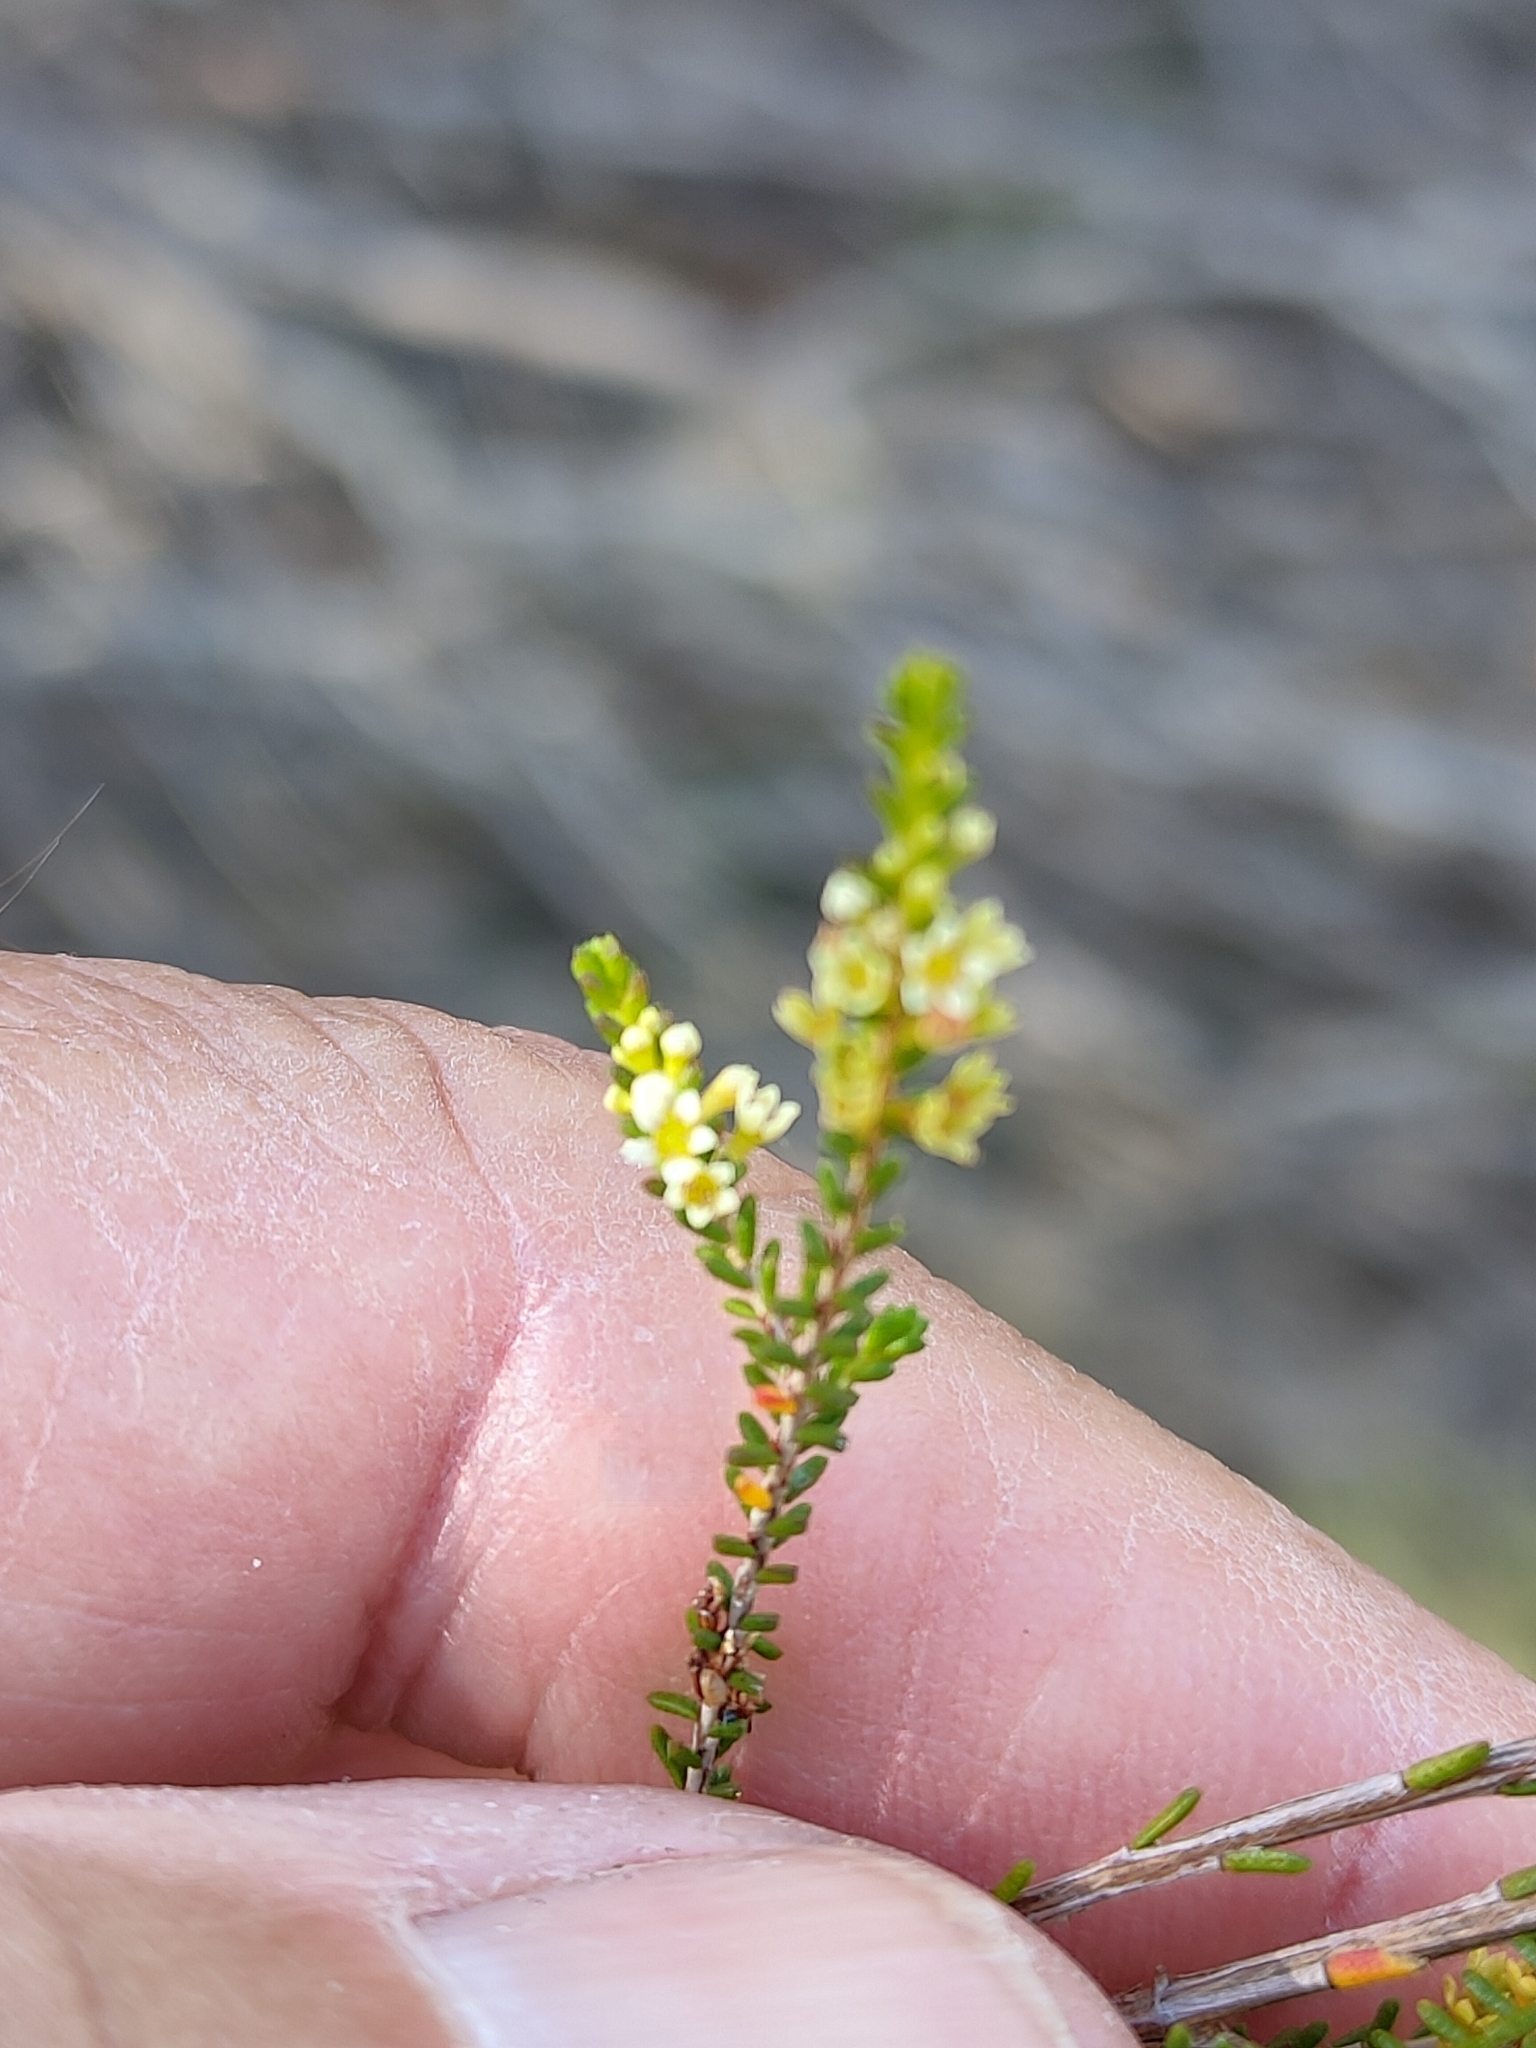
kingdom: Plantae
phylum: Tracheophyta
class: Magnoliopsida
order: Myrtales
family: Myrtaceae
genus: Micromyrtus
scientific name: Micromyrtus littoralis
